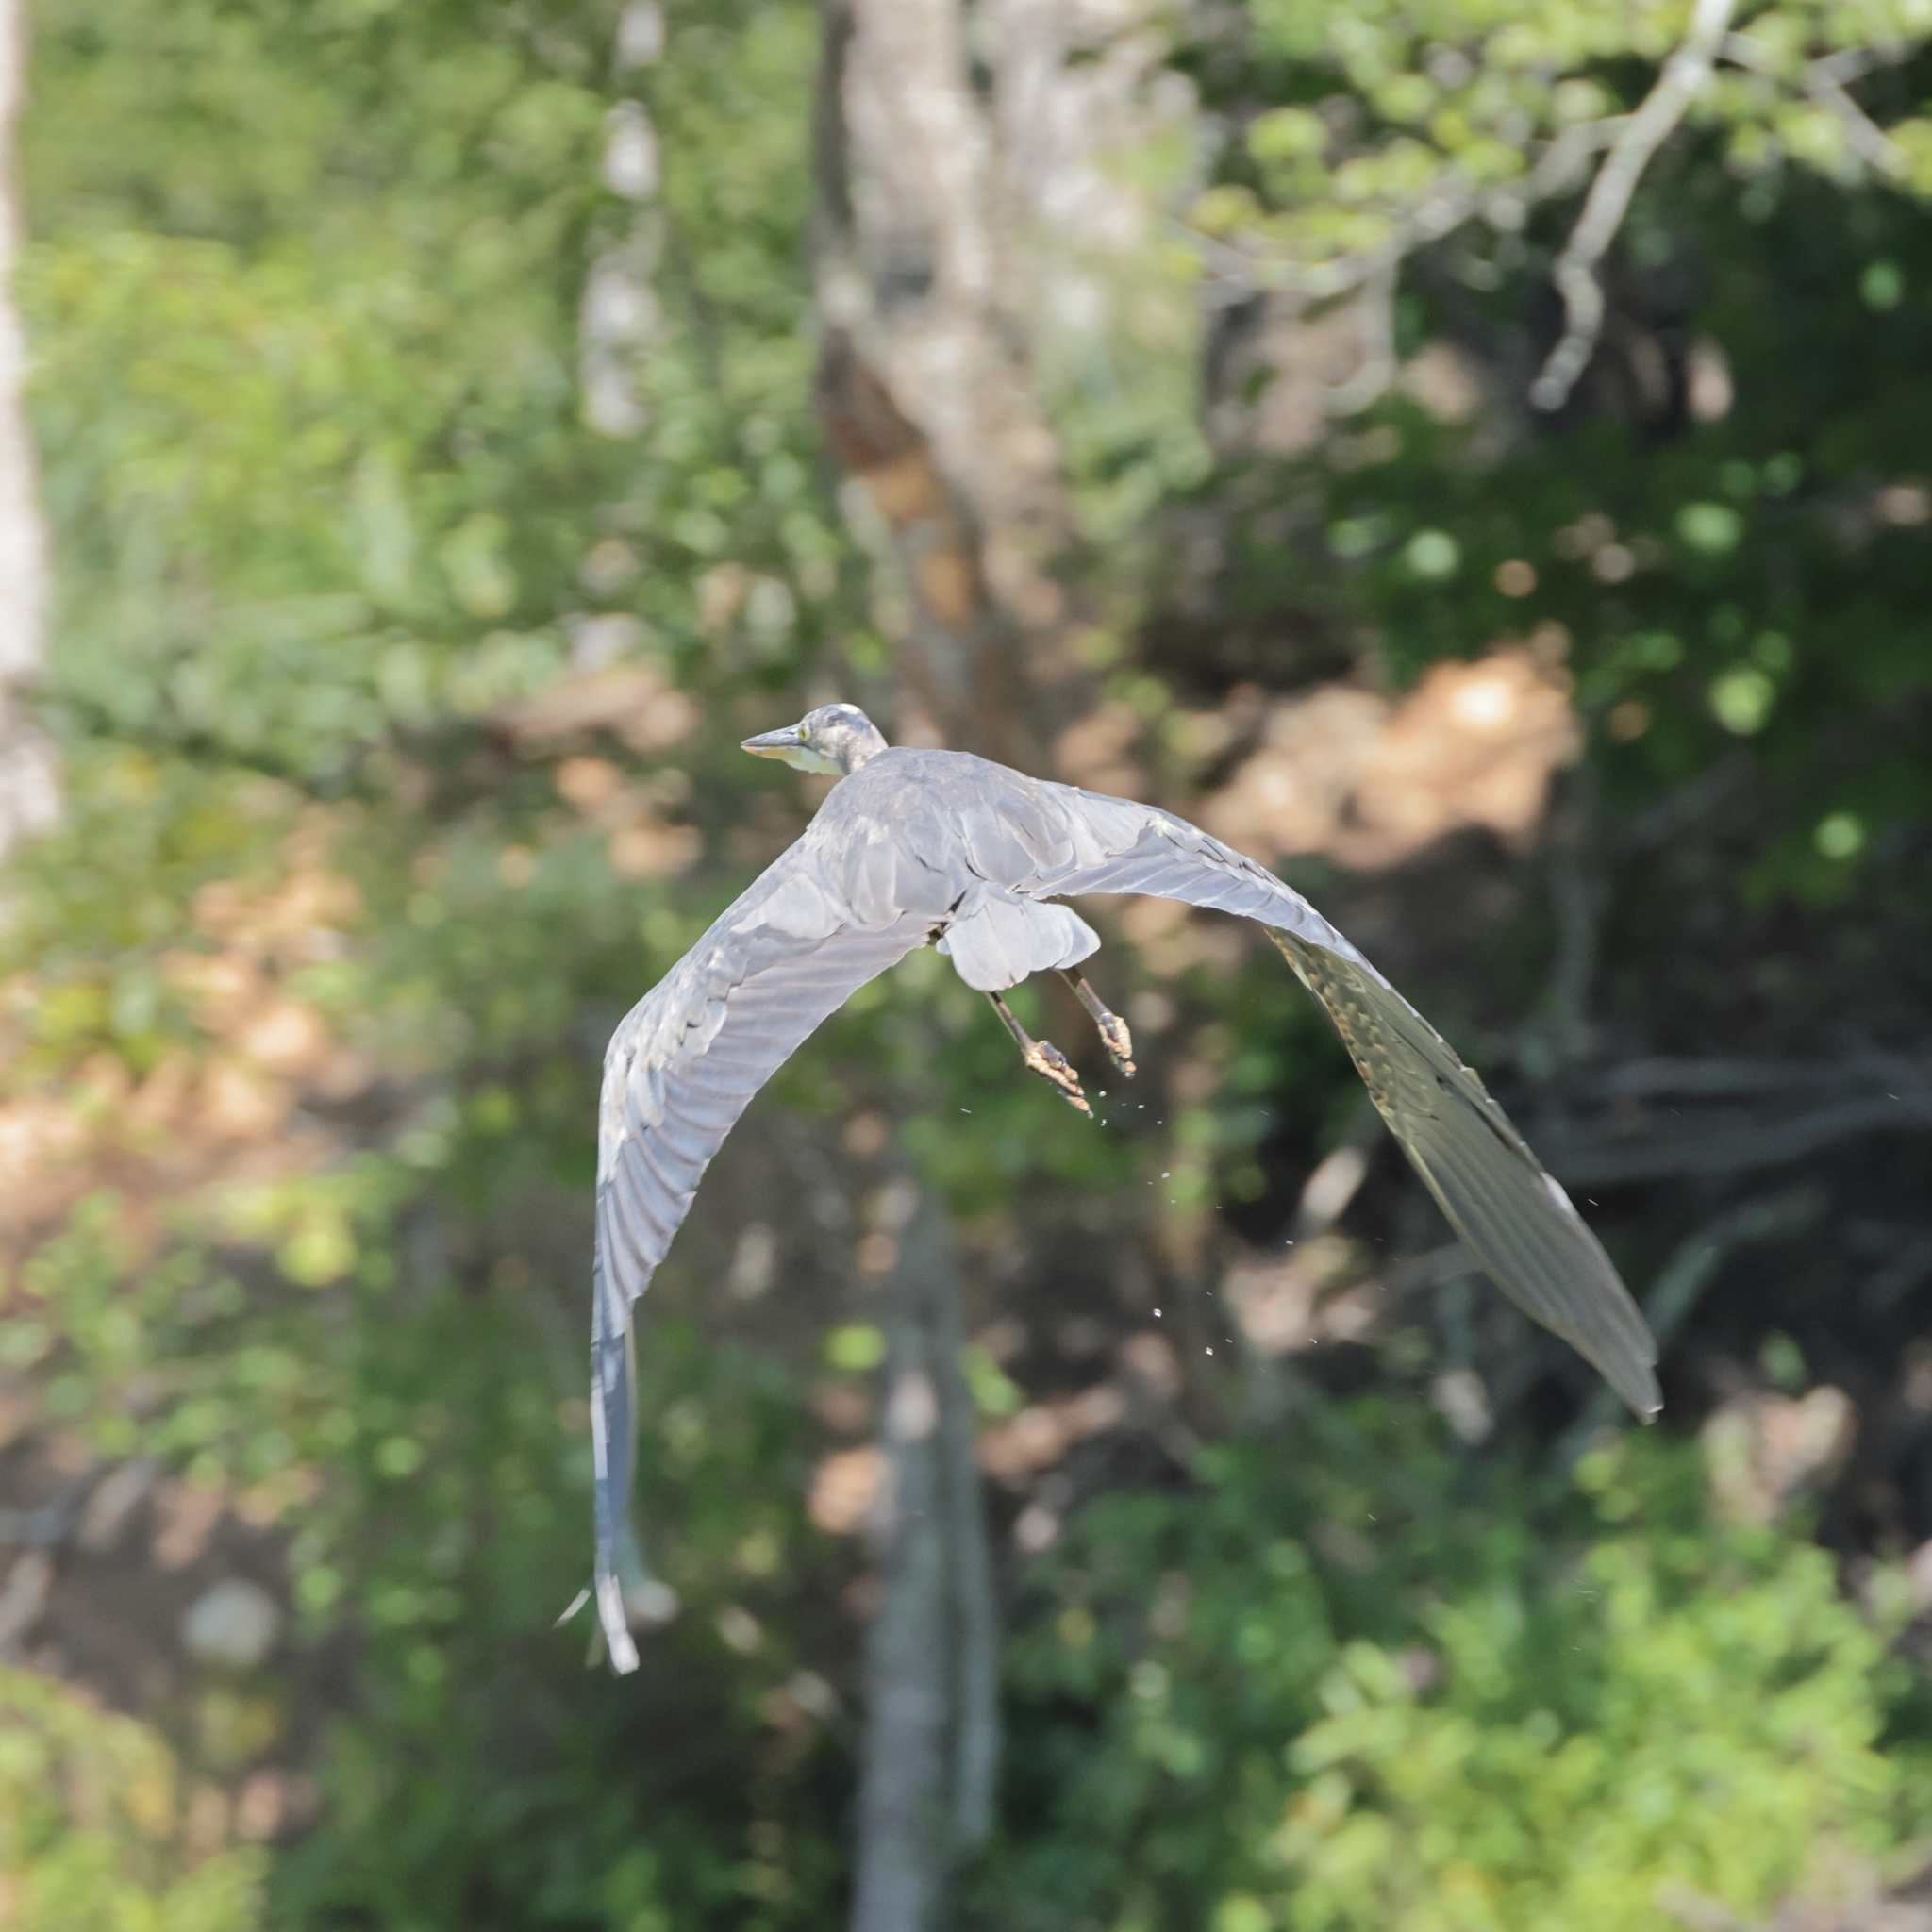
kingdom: Animalia
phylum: Chordata
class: Aves
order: Pelecaniformes
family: Ardeidae
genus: Ardea
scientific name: Ardea herodias
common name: Great blue heron
